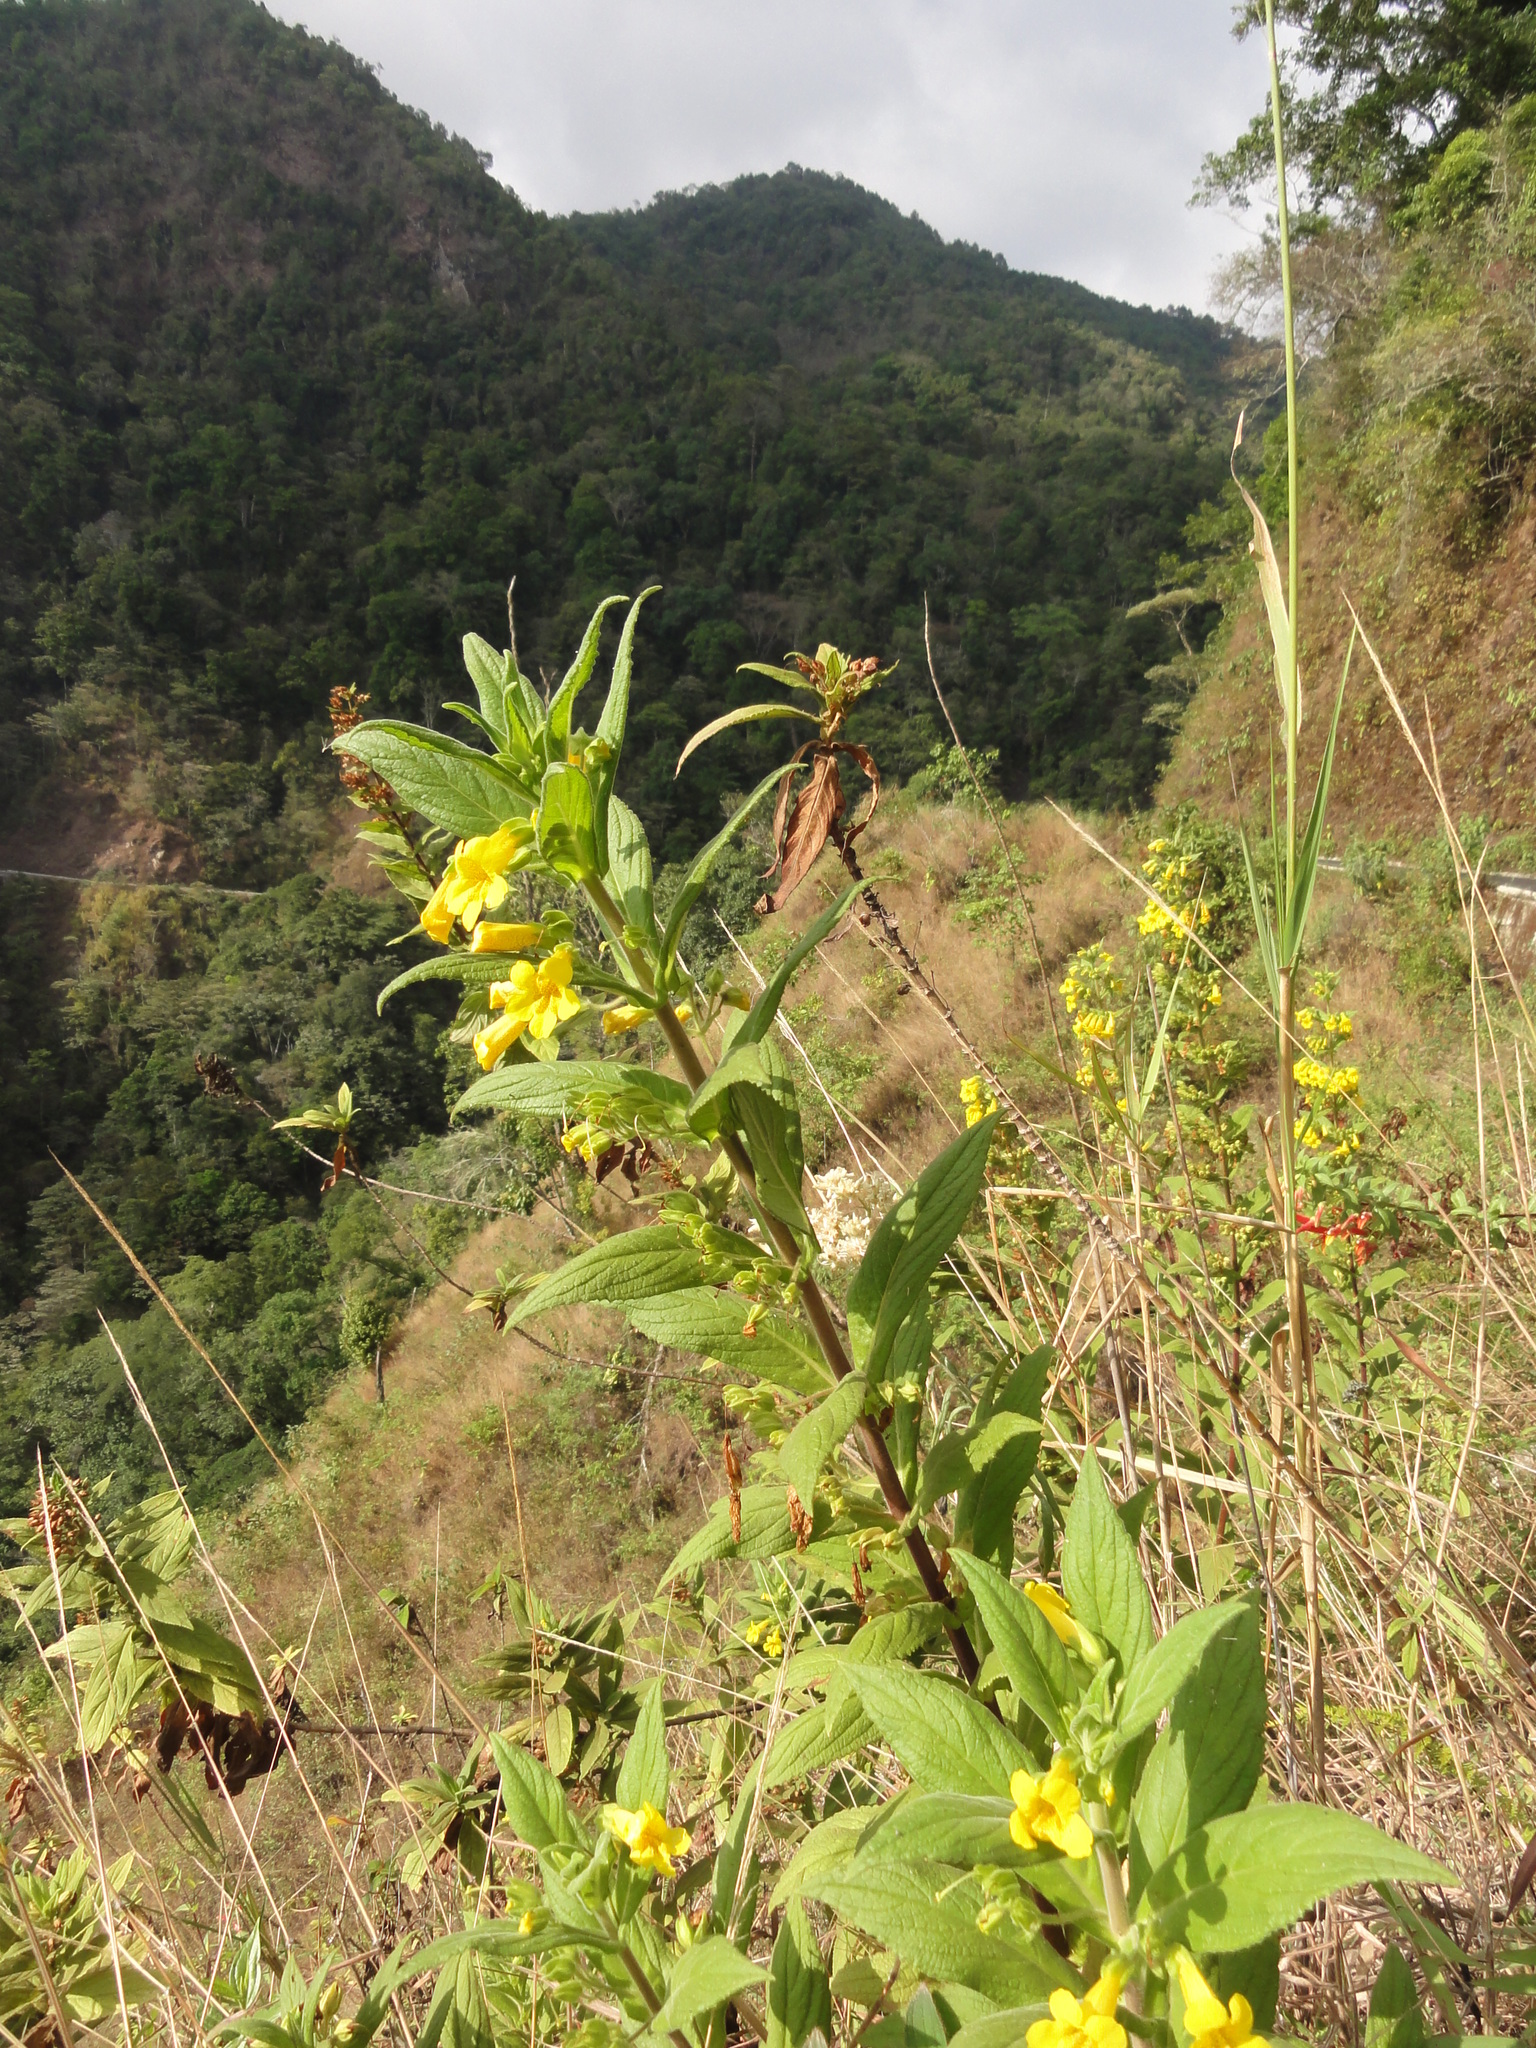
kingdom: Plantae
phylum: Tracheophyta
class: Magnoliopsida
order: Lamiales
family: Phrymaceae
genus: Hemichaena
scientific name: Hemichaena fruticosa
